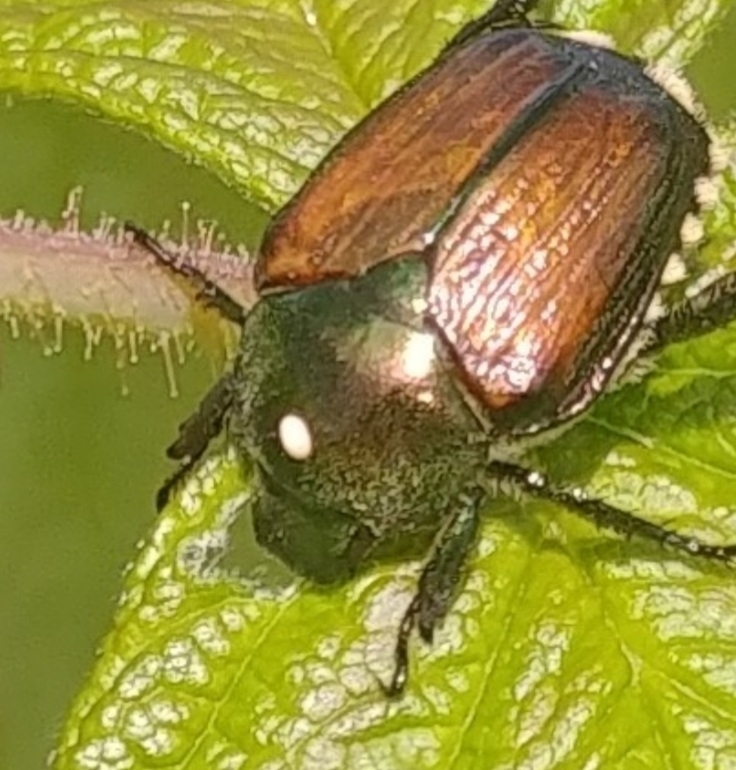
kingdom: Animalia
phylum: Arthropoda
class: Insecta
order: Diptera
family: Tachinidae
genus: Istocheta
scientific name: Istocheta aldrichi
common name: Parasitic wasp
